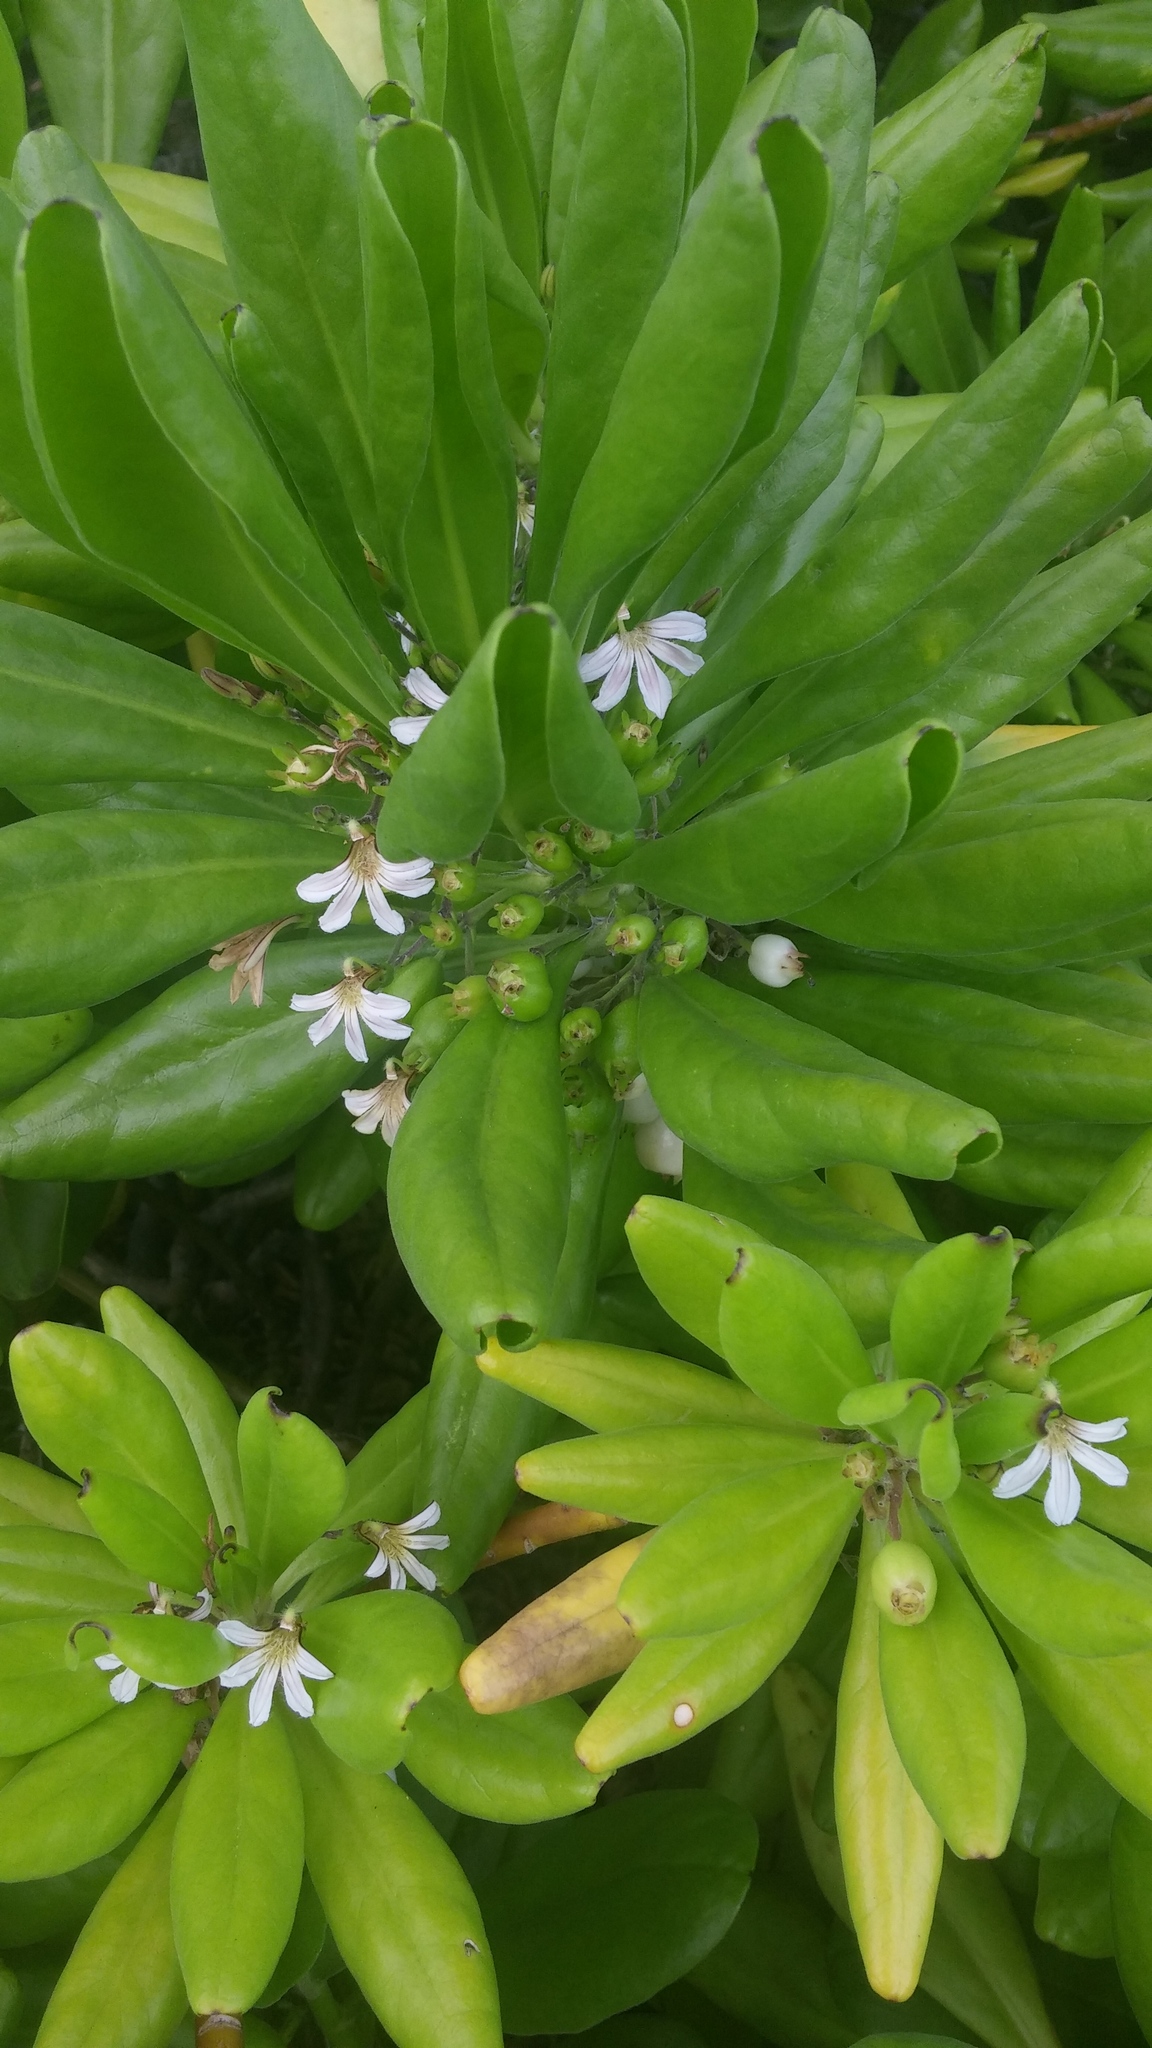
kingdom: Plantae
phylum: Tracheophyta
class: Magnoliopsida
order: Asterales
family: Goodeniaceae
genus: Scaevola
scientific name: Scaevola taccada
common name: Sea lettucetree
